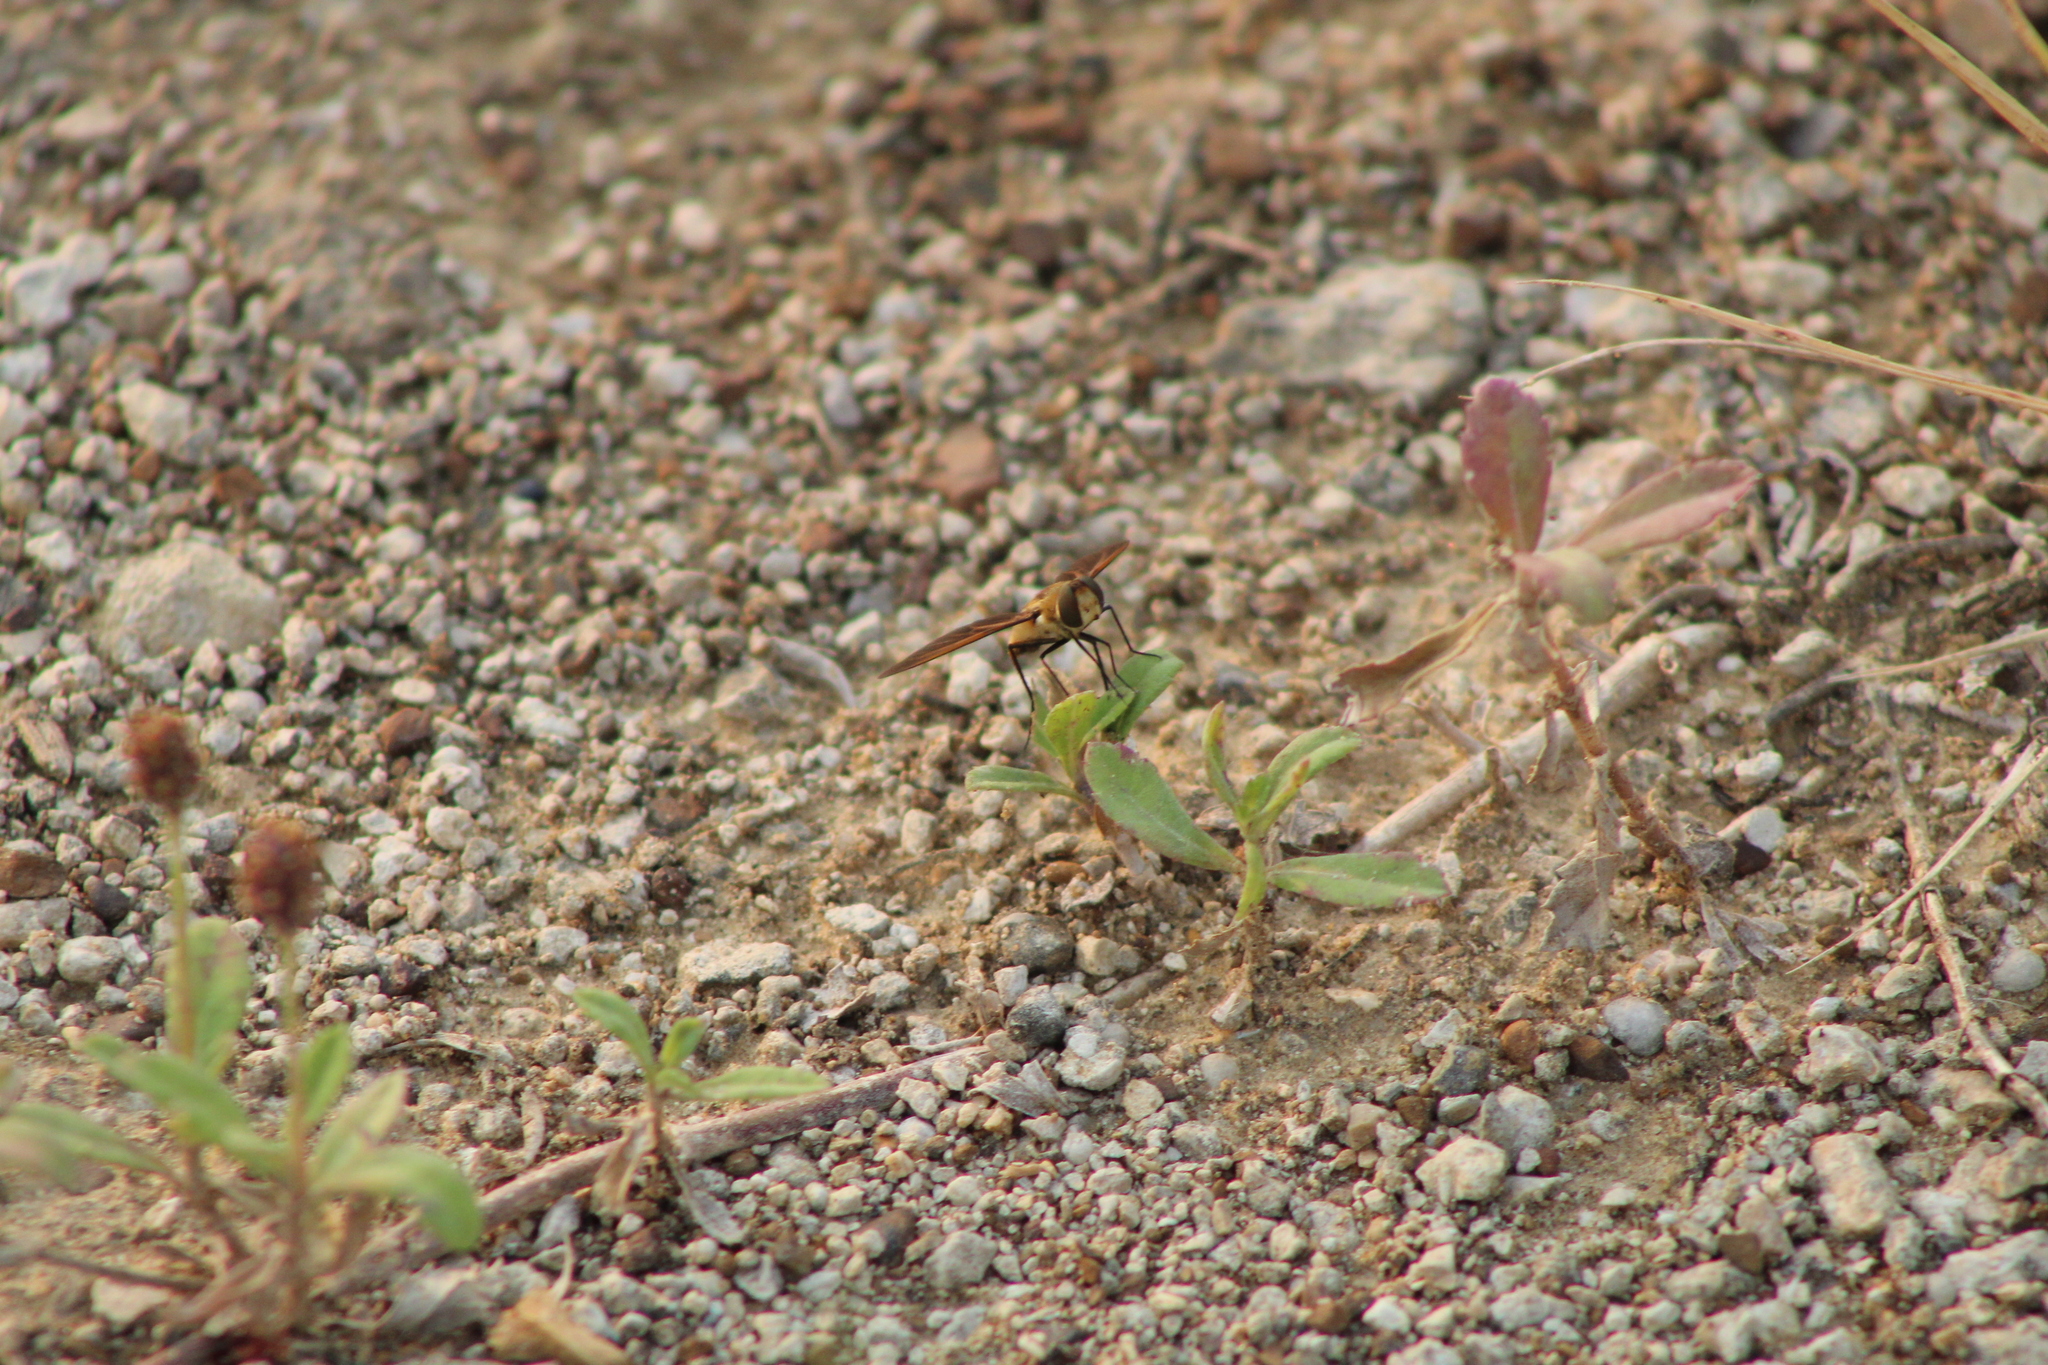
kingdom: Animalia
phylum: Arthropoda
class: Insecta
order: Diptera
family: Bombyliidae
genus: Poecilanthrax
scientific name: Poecilanthrax lucifer
